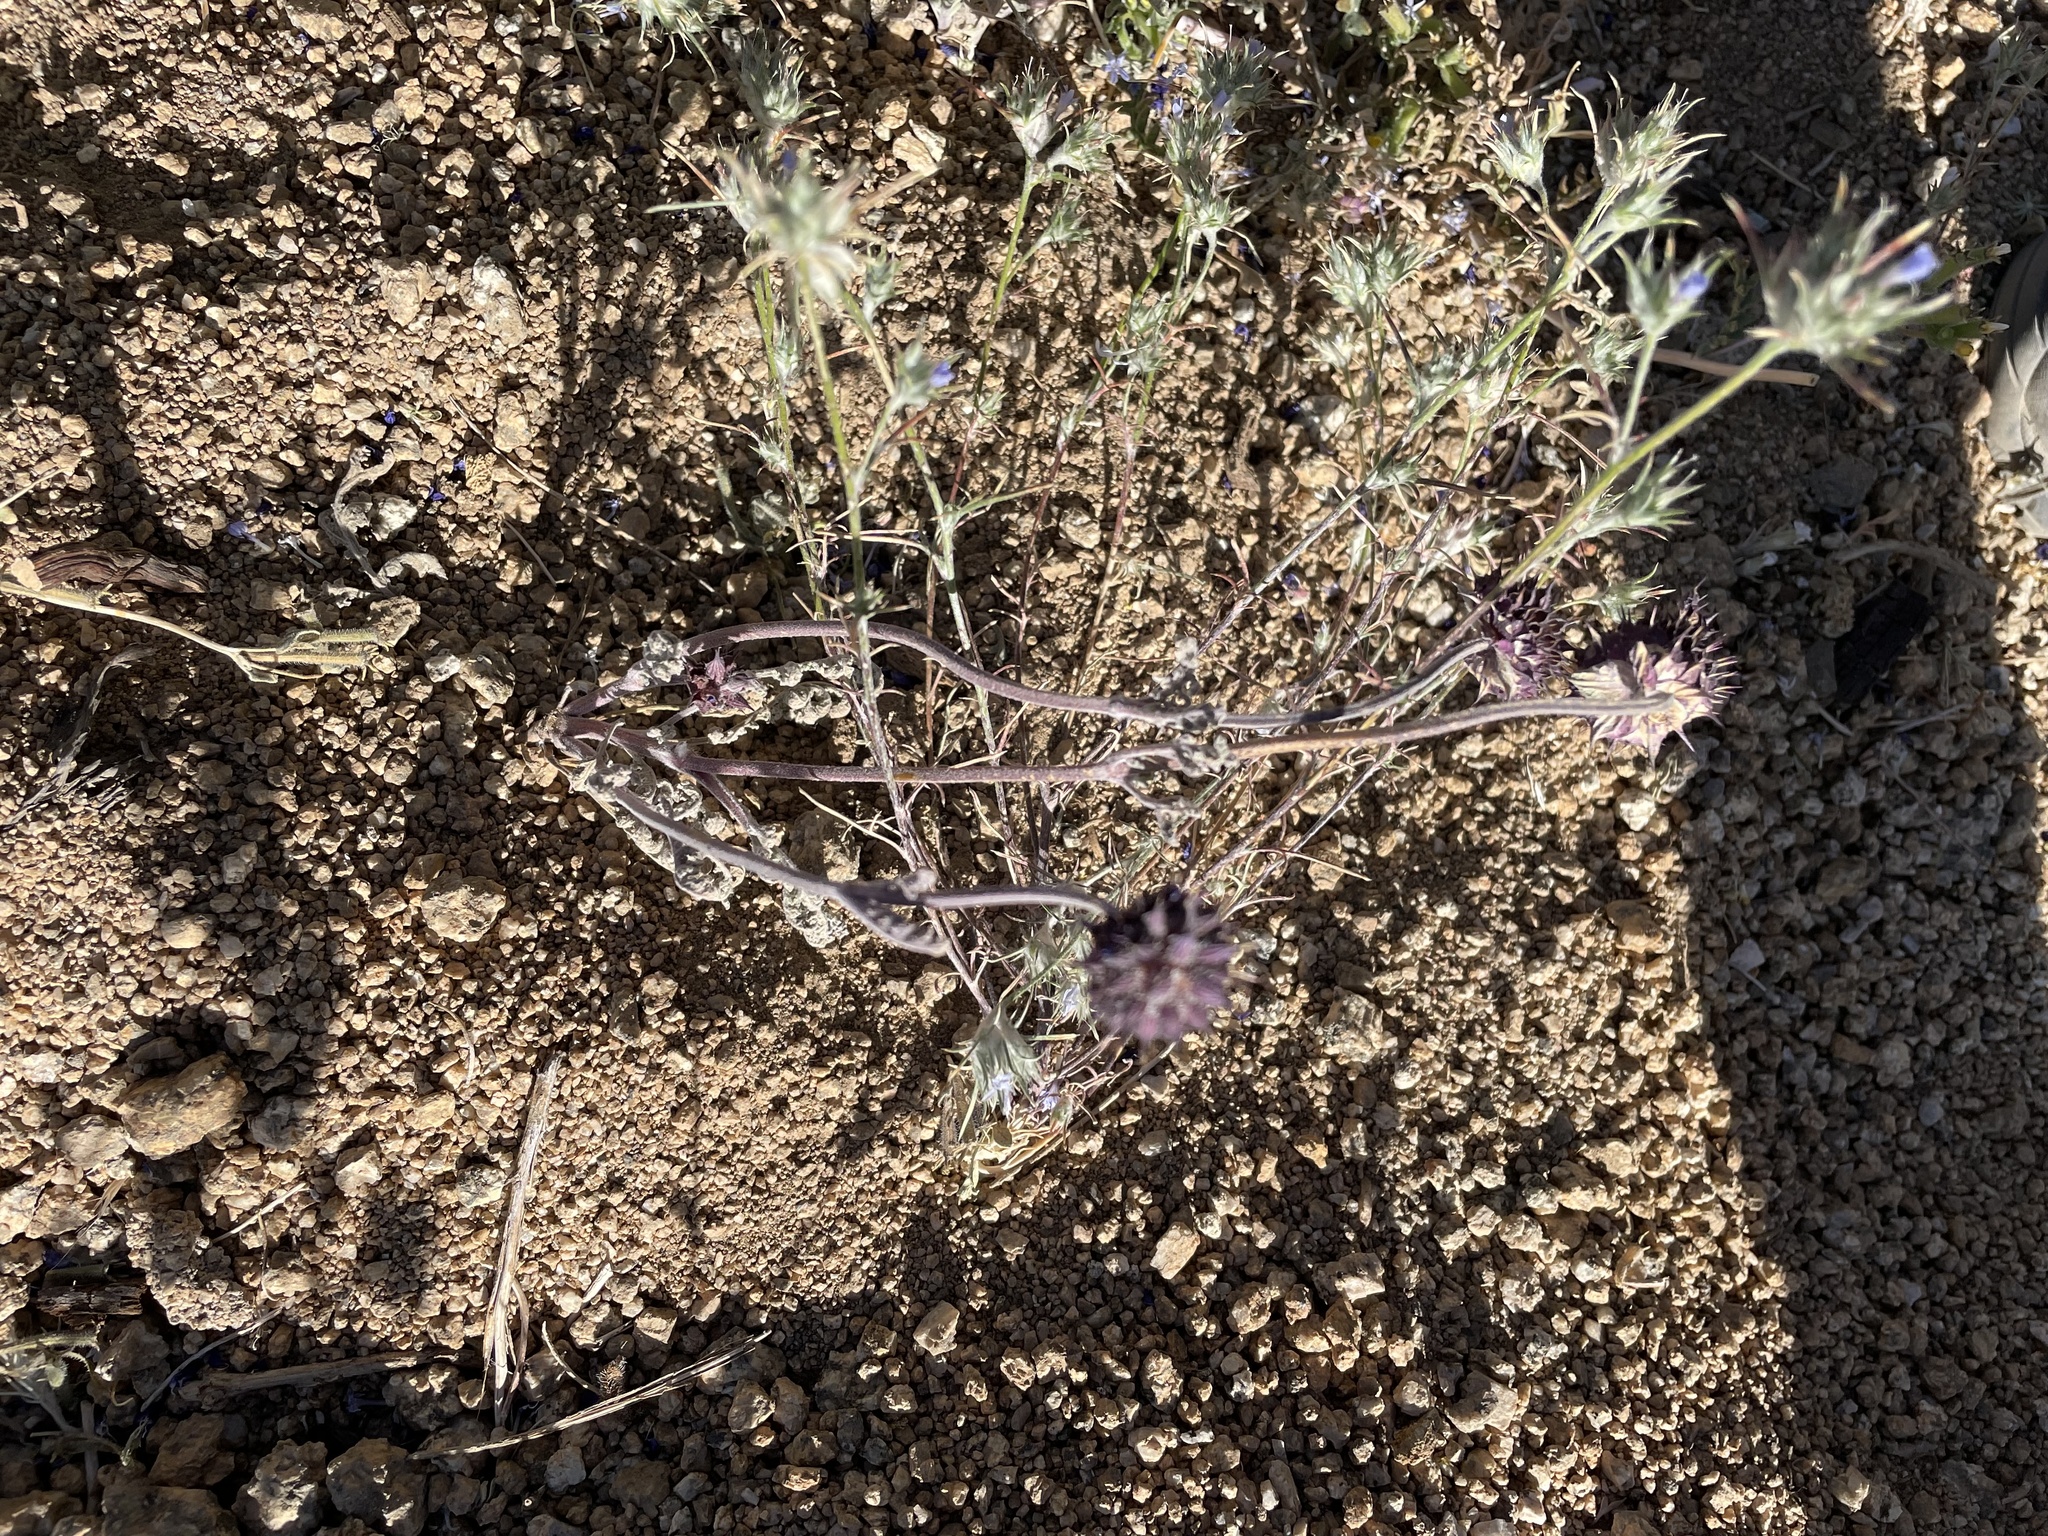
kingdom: Plantae
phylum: Tracheophyta
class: Magnoliopsida
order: Lamiales
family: Lamiaceae
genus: Salvia
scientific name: Salvia columbariae
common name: Chia
